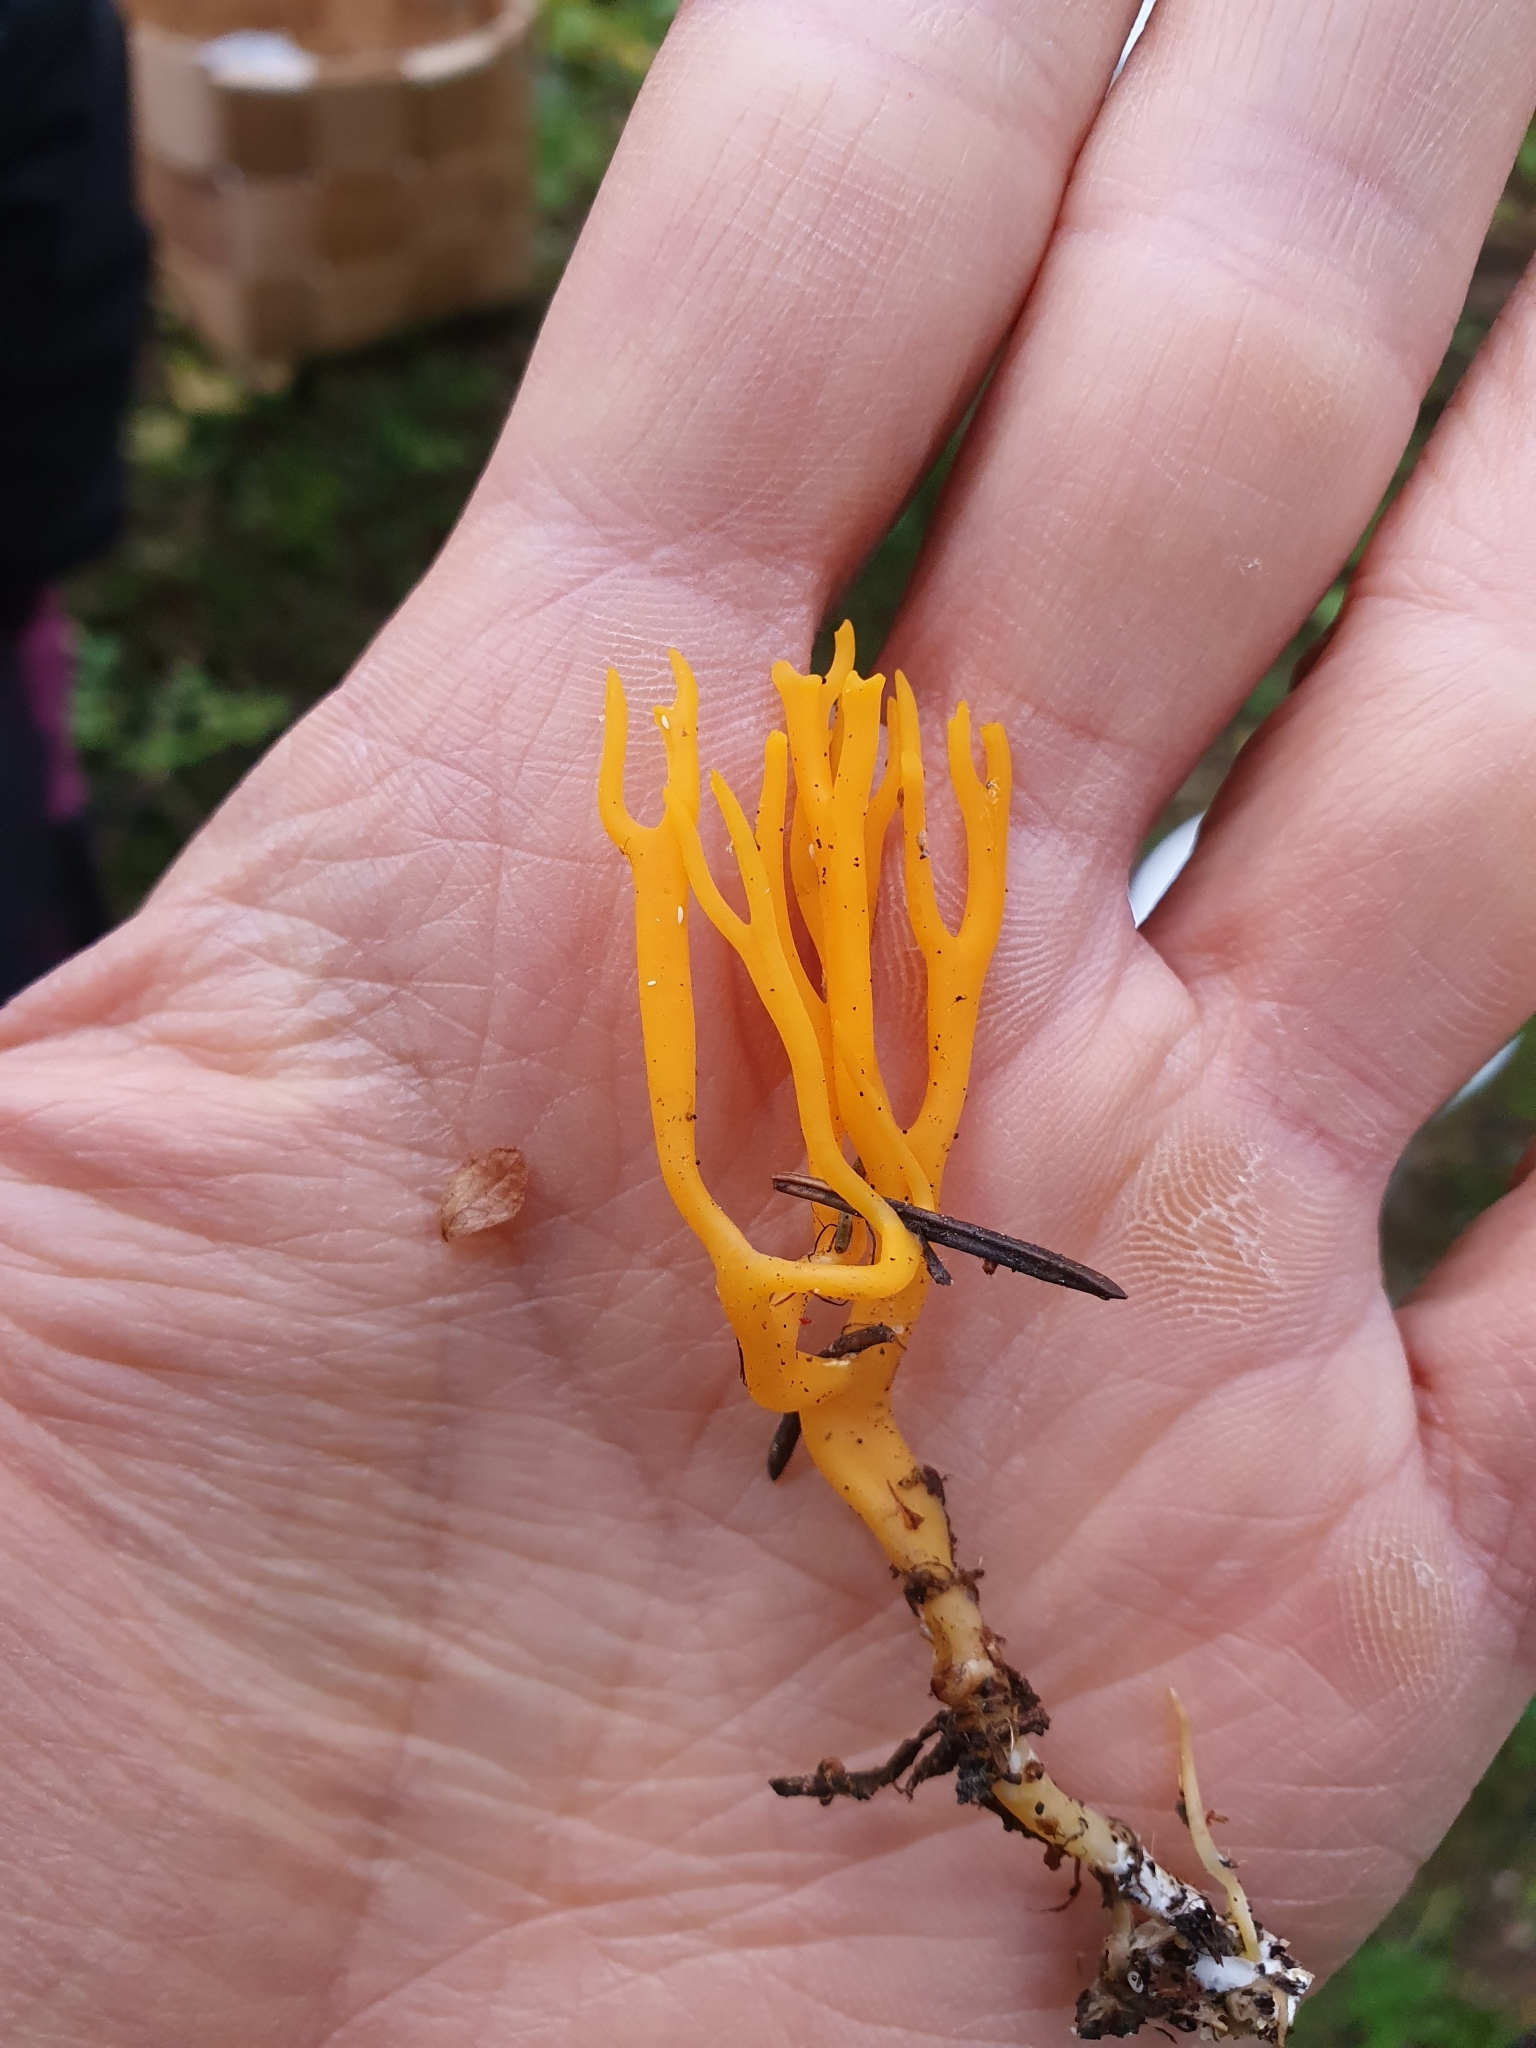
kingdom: Fungi
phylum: Basidiomycota
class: Dacrymycetes
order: Dacrymycetales
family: Dacrymycetaceae
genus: Calocera
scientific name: Calocera viscosa
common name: Yellow stagshorn
